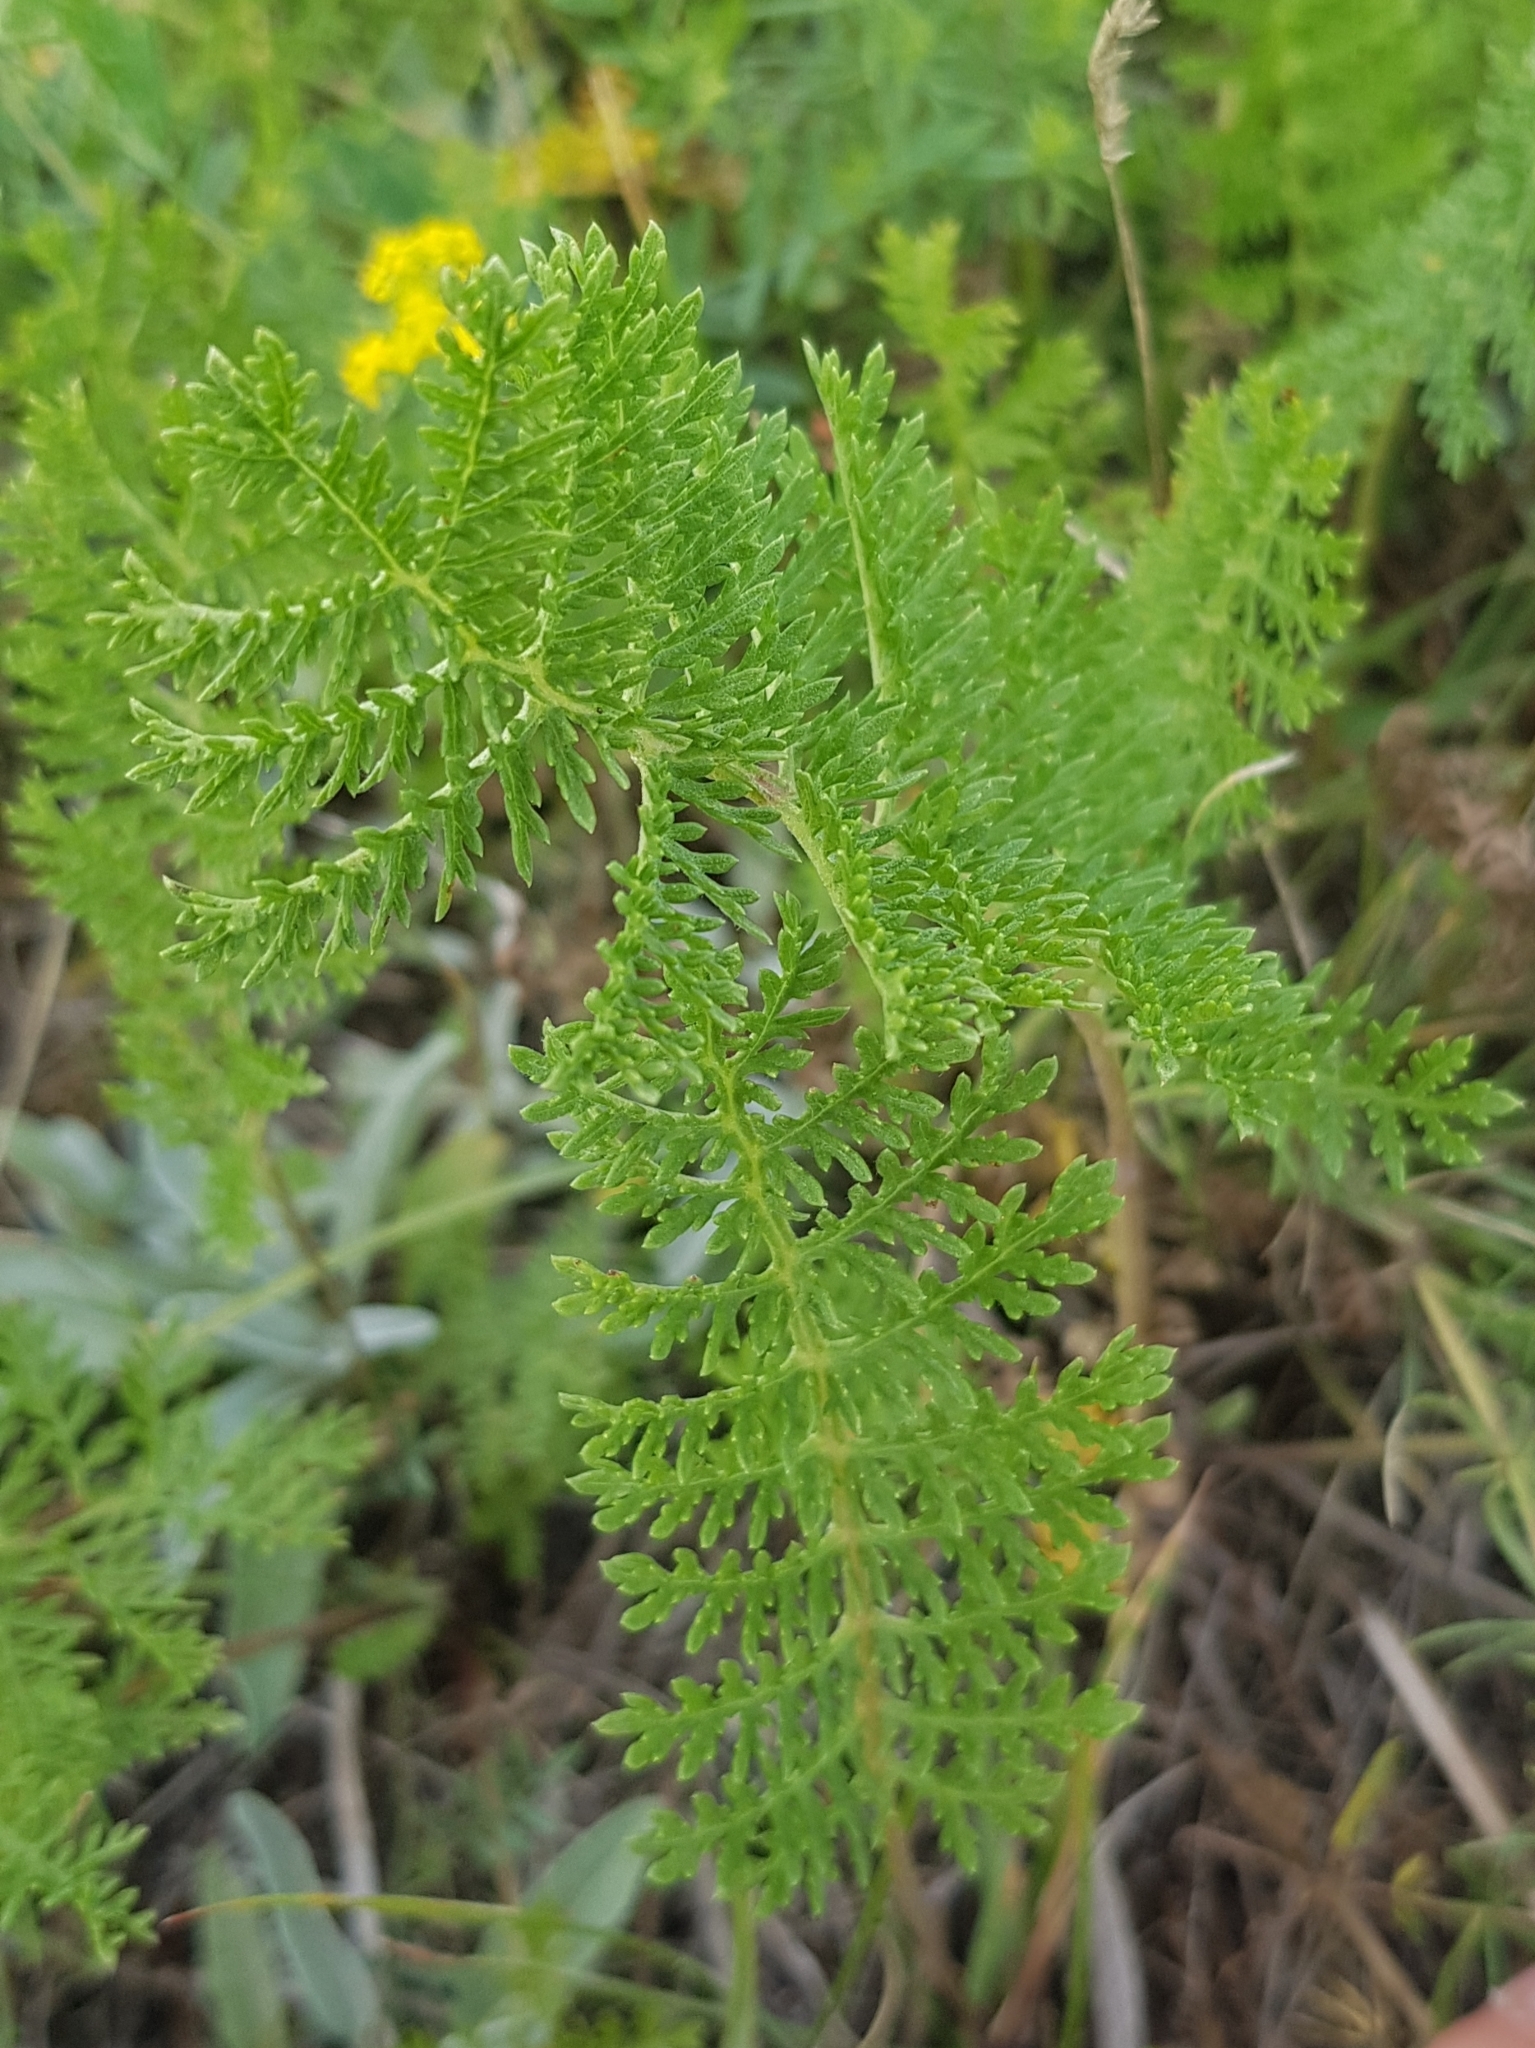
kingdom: Plantae
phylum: Tracheophyta
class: Magnoliopsida
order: Asterales
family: Asteraceae
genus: Achillea
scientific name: Achillea asiatica
